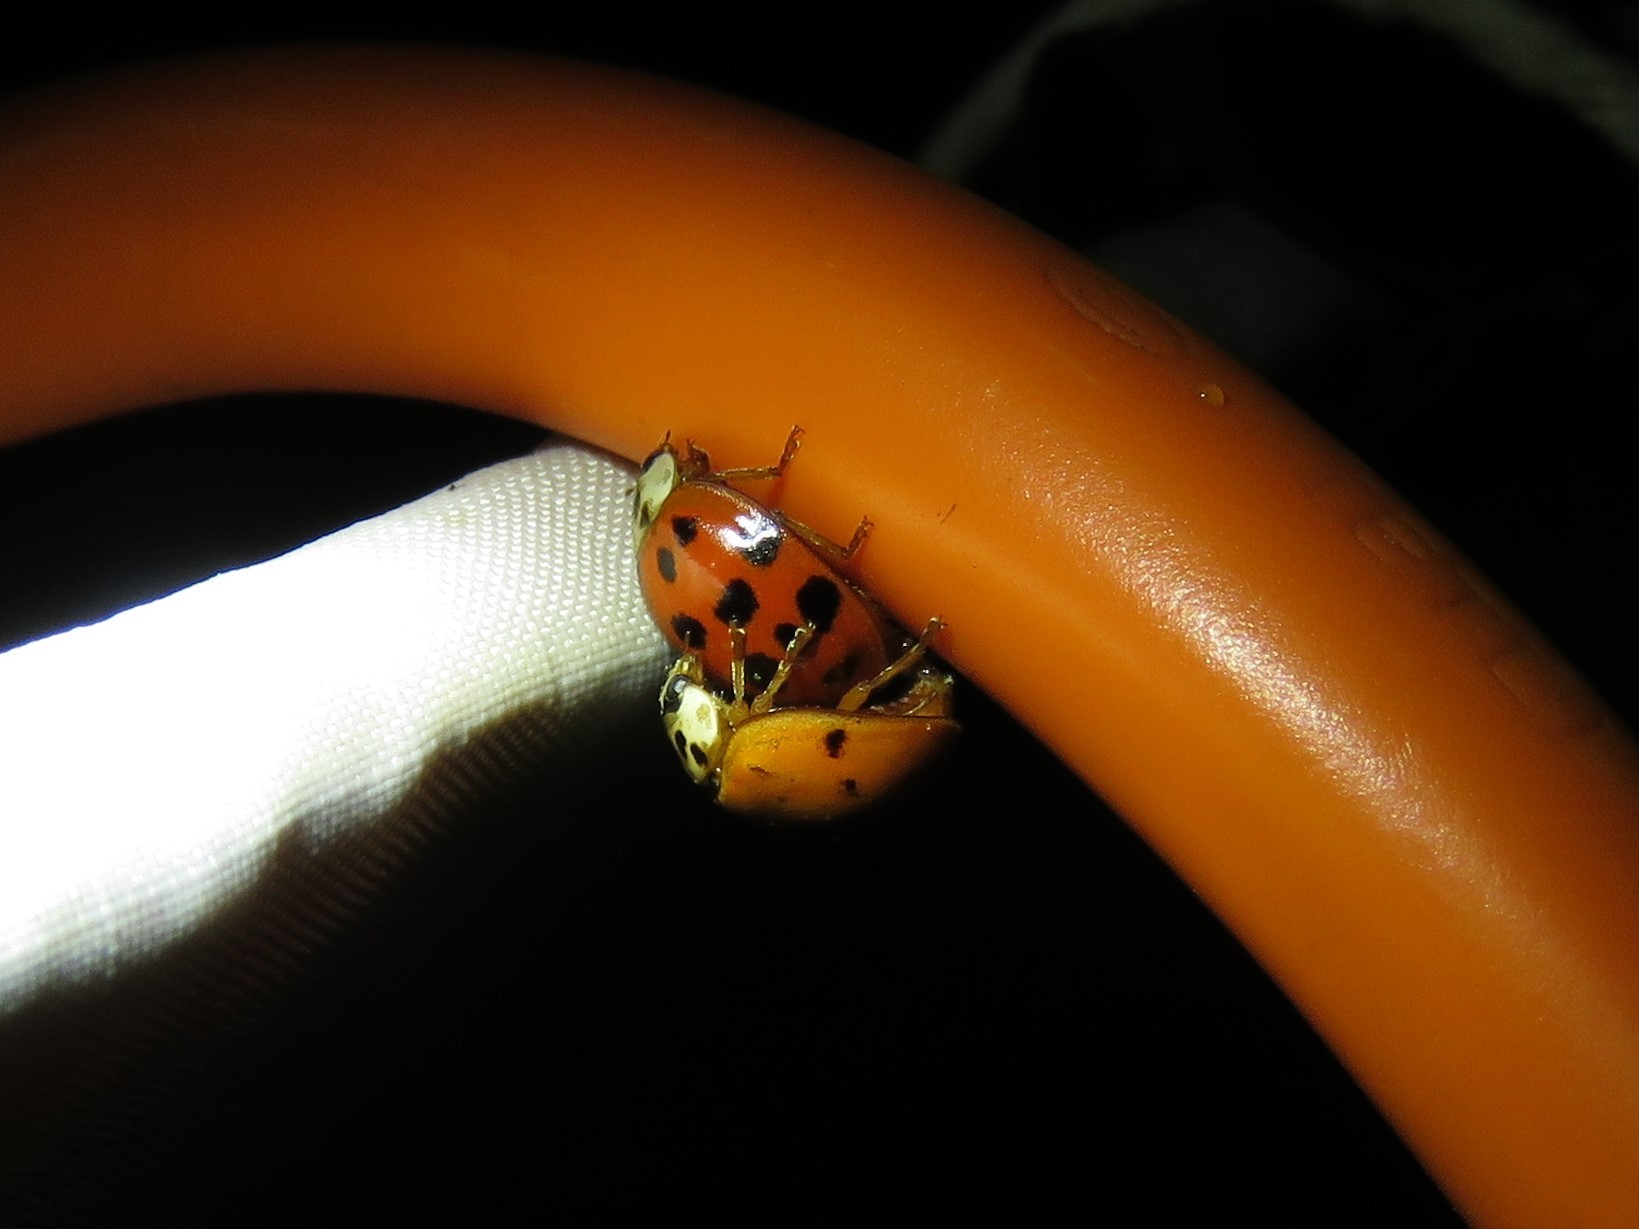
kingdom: Animalia
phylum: Arthropoda
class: Insecta
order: Coleoptera
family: Coccinellidae
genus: Harmonia
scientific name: Harmonia axyridis
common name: Harlequin ladybird
